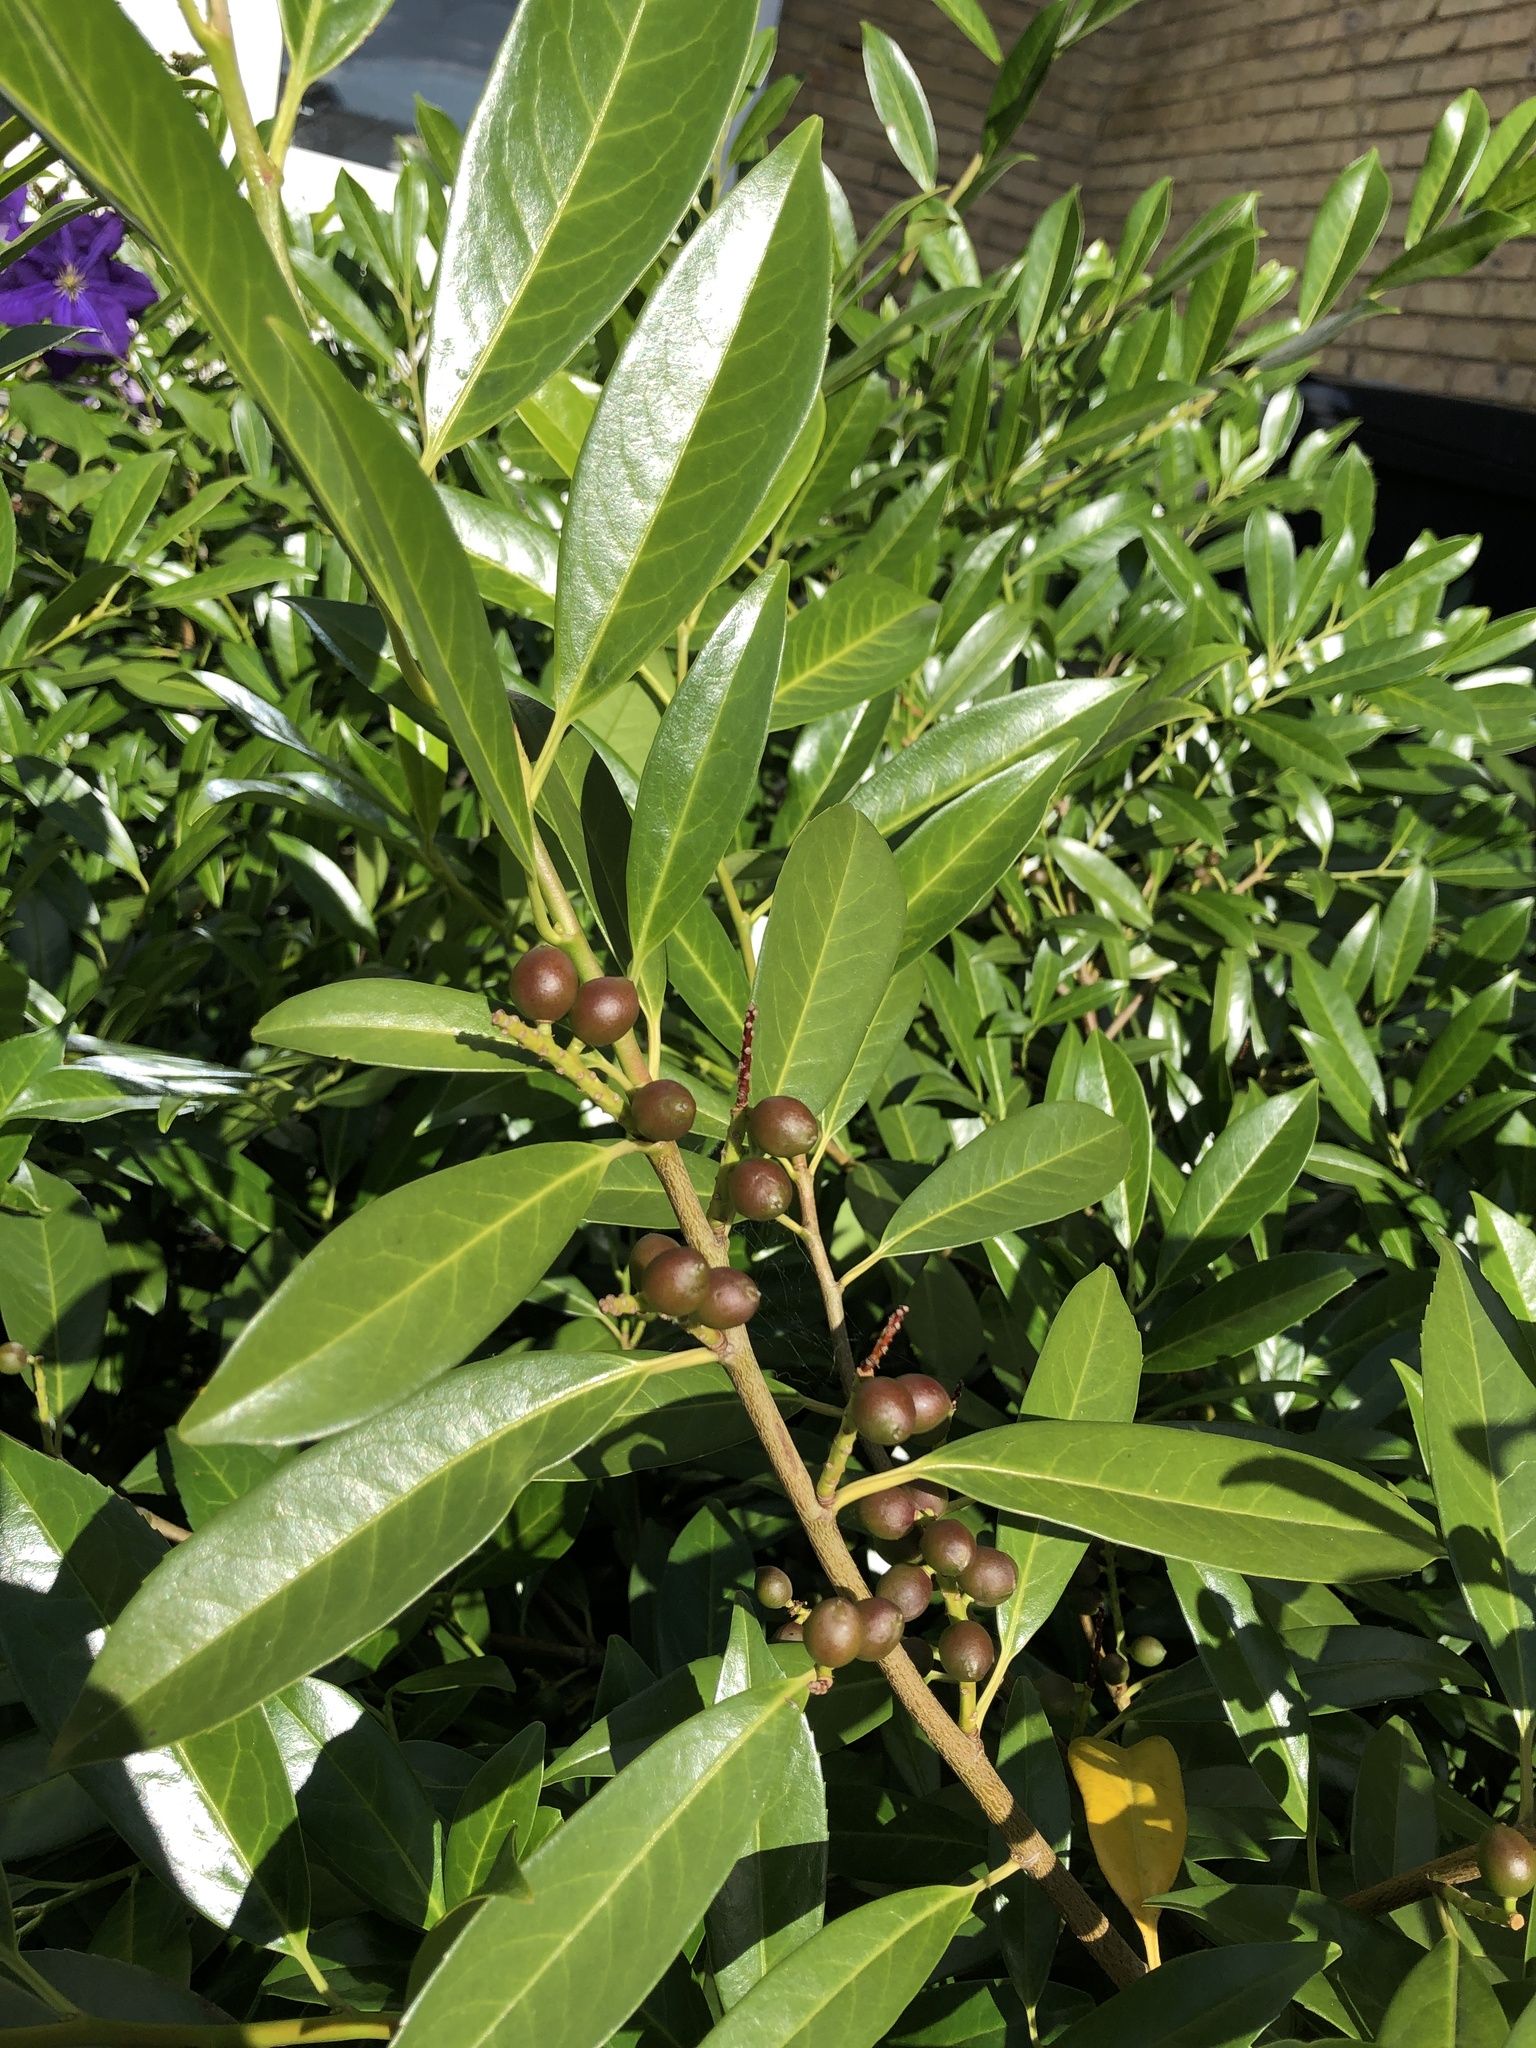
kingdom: Plantae
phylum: Tracheophyta
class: Magnoliopsida
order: Rosales
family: Rosaceae
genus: Prunus
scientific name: Prunus laurocerasus
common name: Cherry laurel
